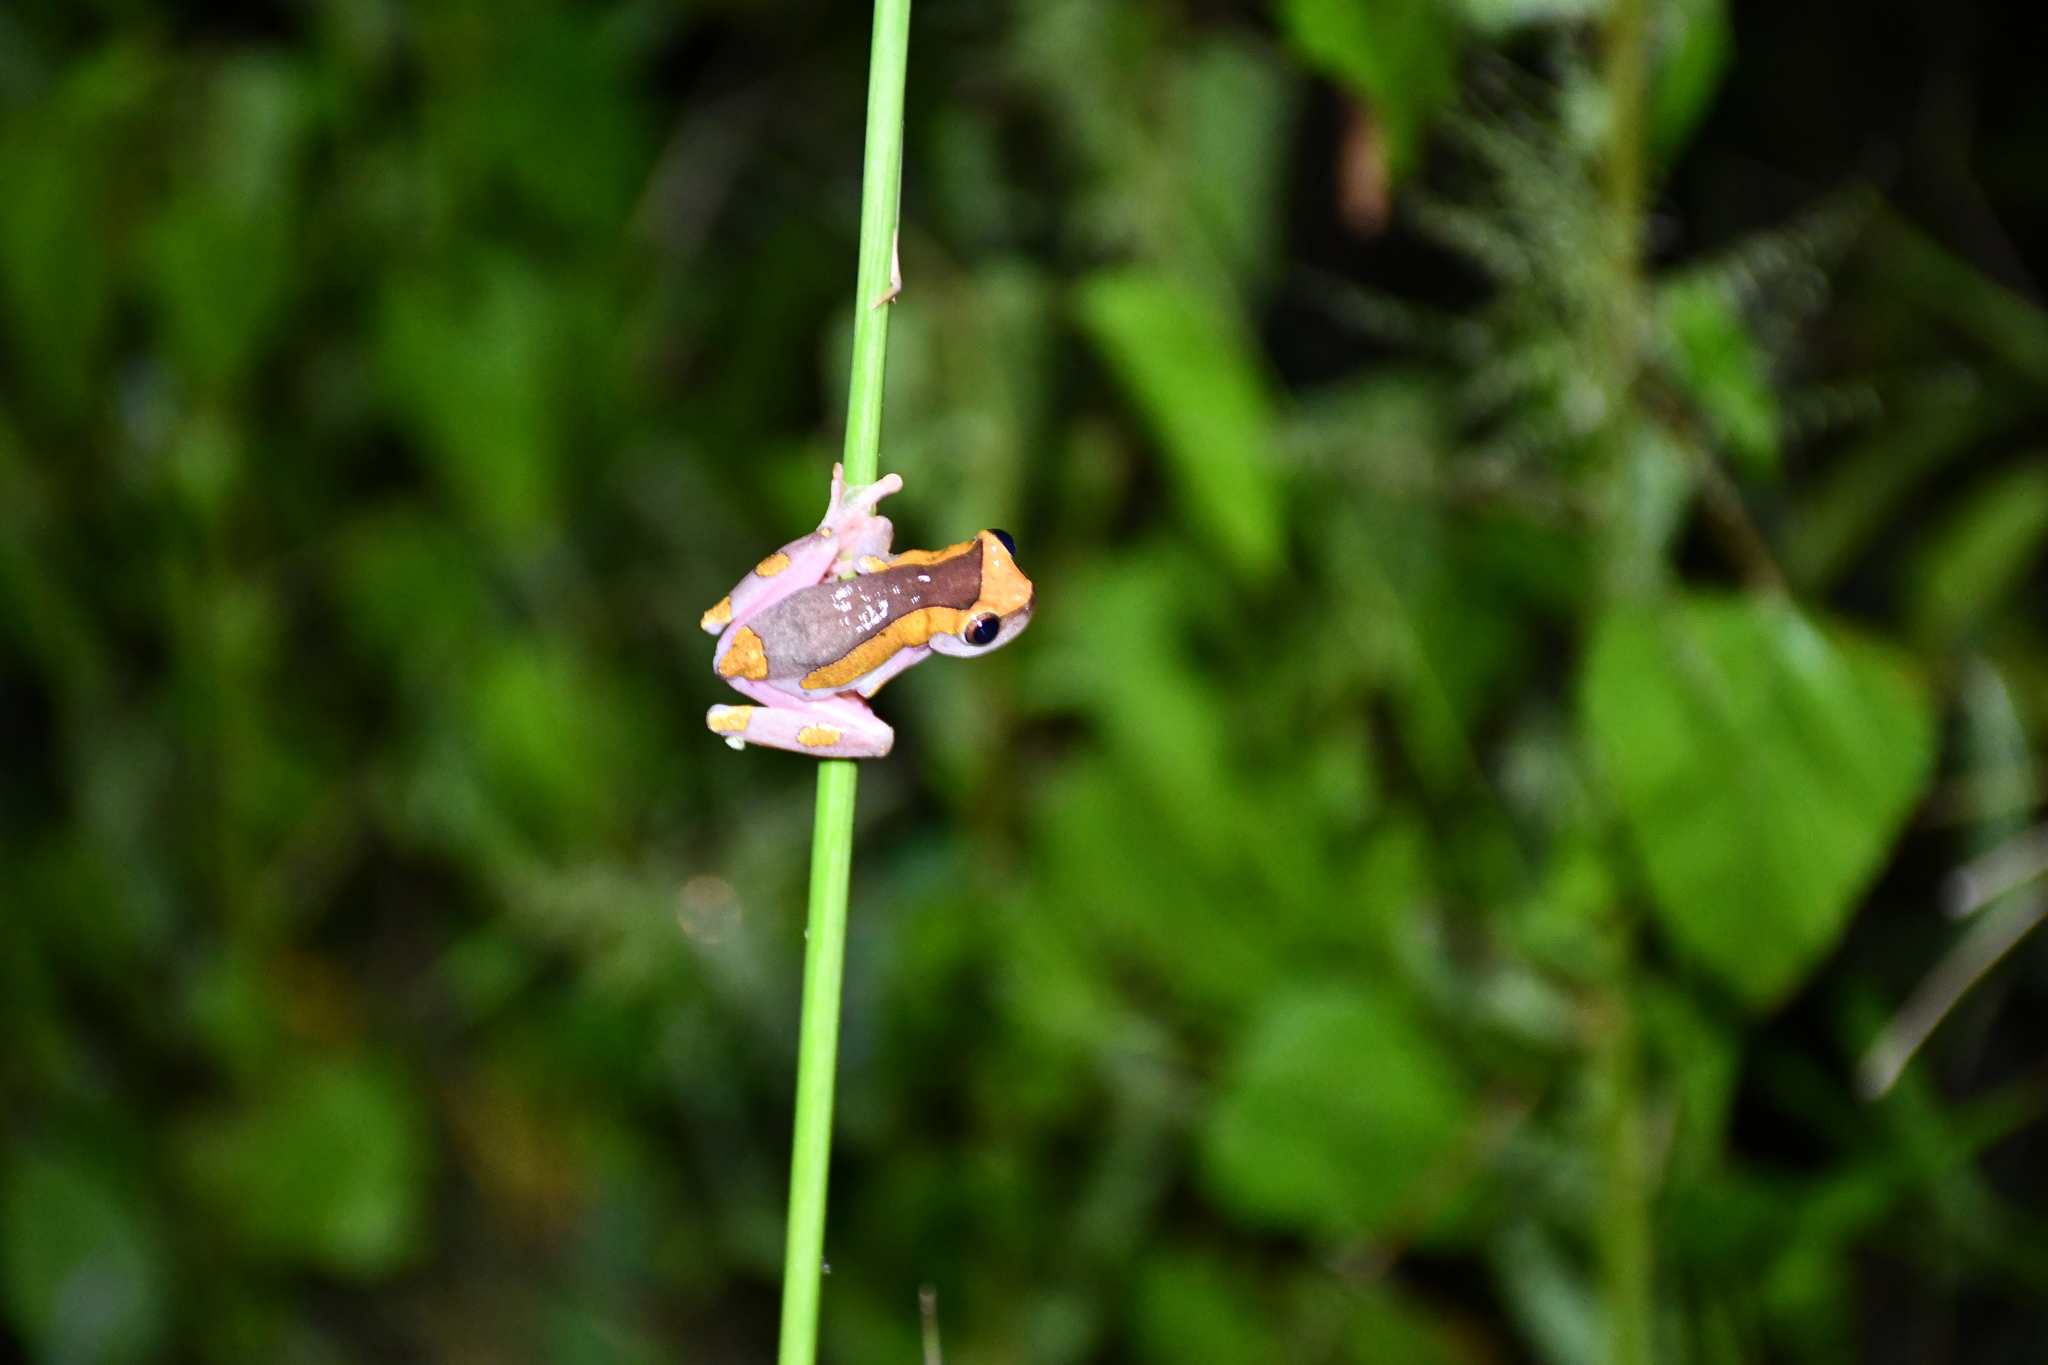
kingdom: Animalia
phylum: Chordata
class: Amphibia
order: Anura
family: Hylidae
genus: Dendropsophus
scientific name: Dendropsophus arndti
